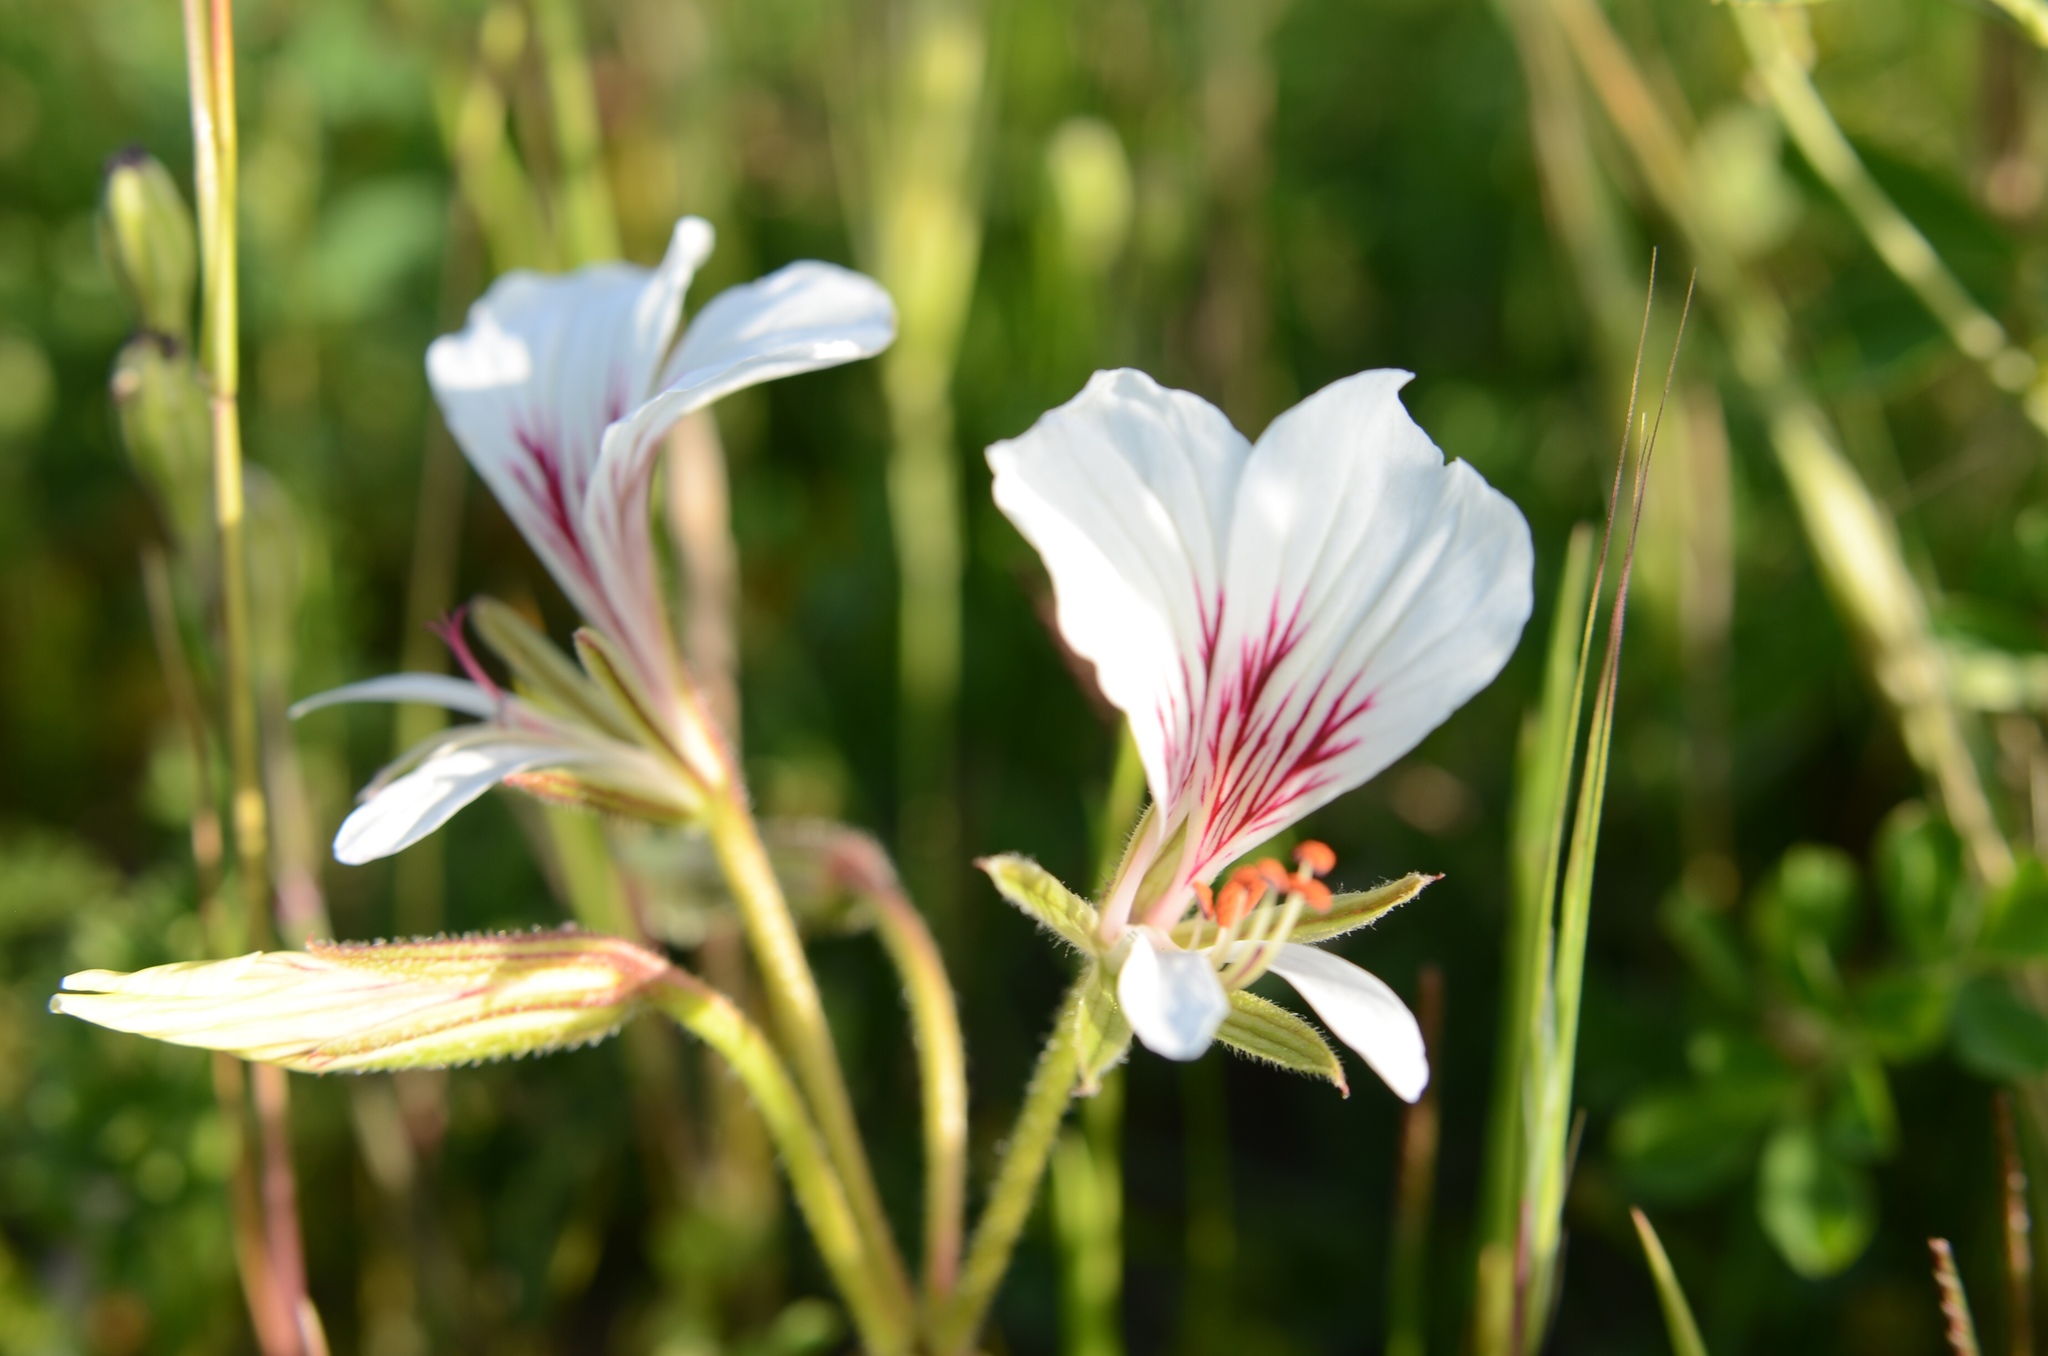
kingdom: Plantae
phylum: Tracheophyta
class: Magnoliopsida
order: Geraniales
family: Geraniaceae
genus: Pelargonium
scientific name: Pelargonium suburbanum
